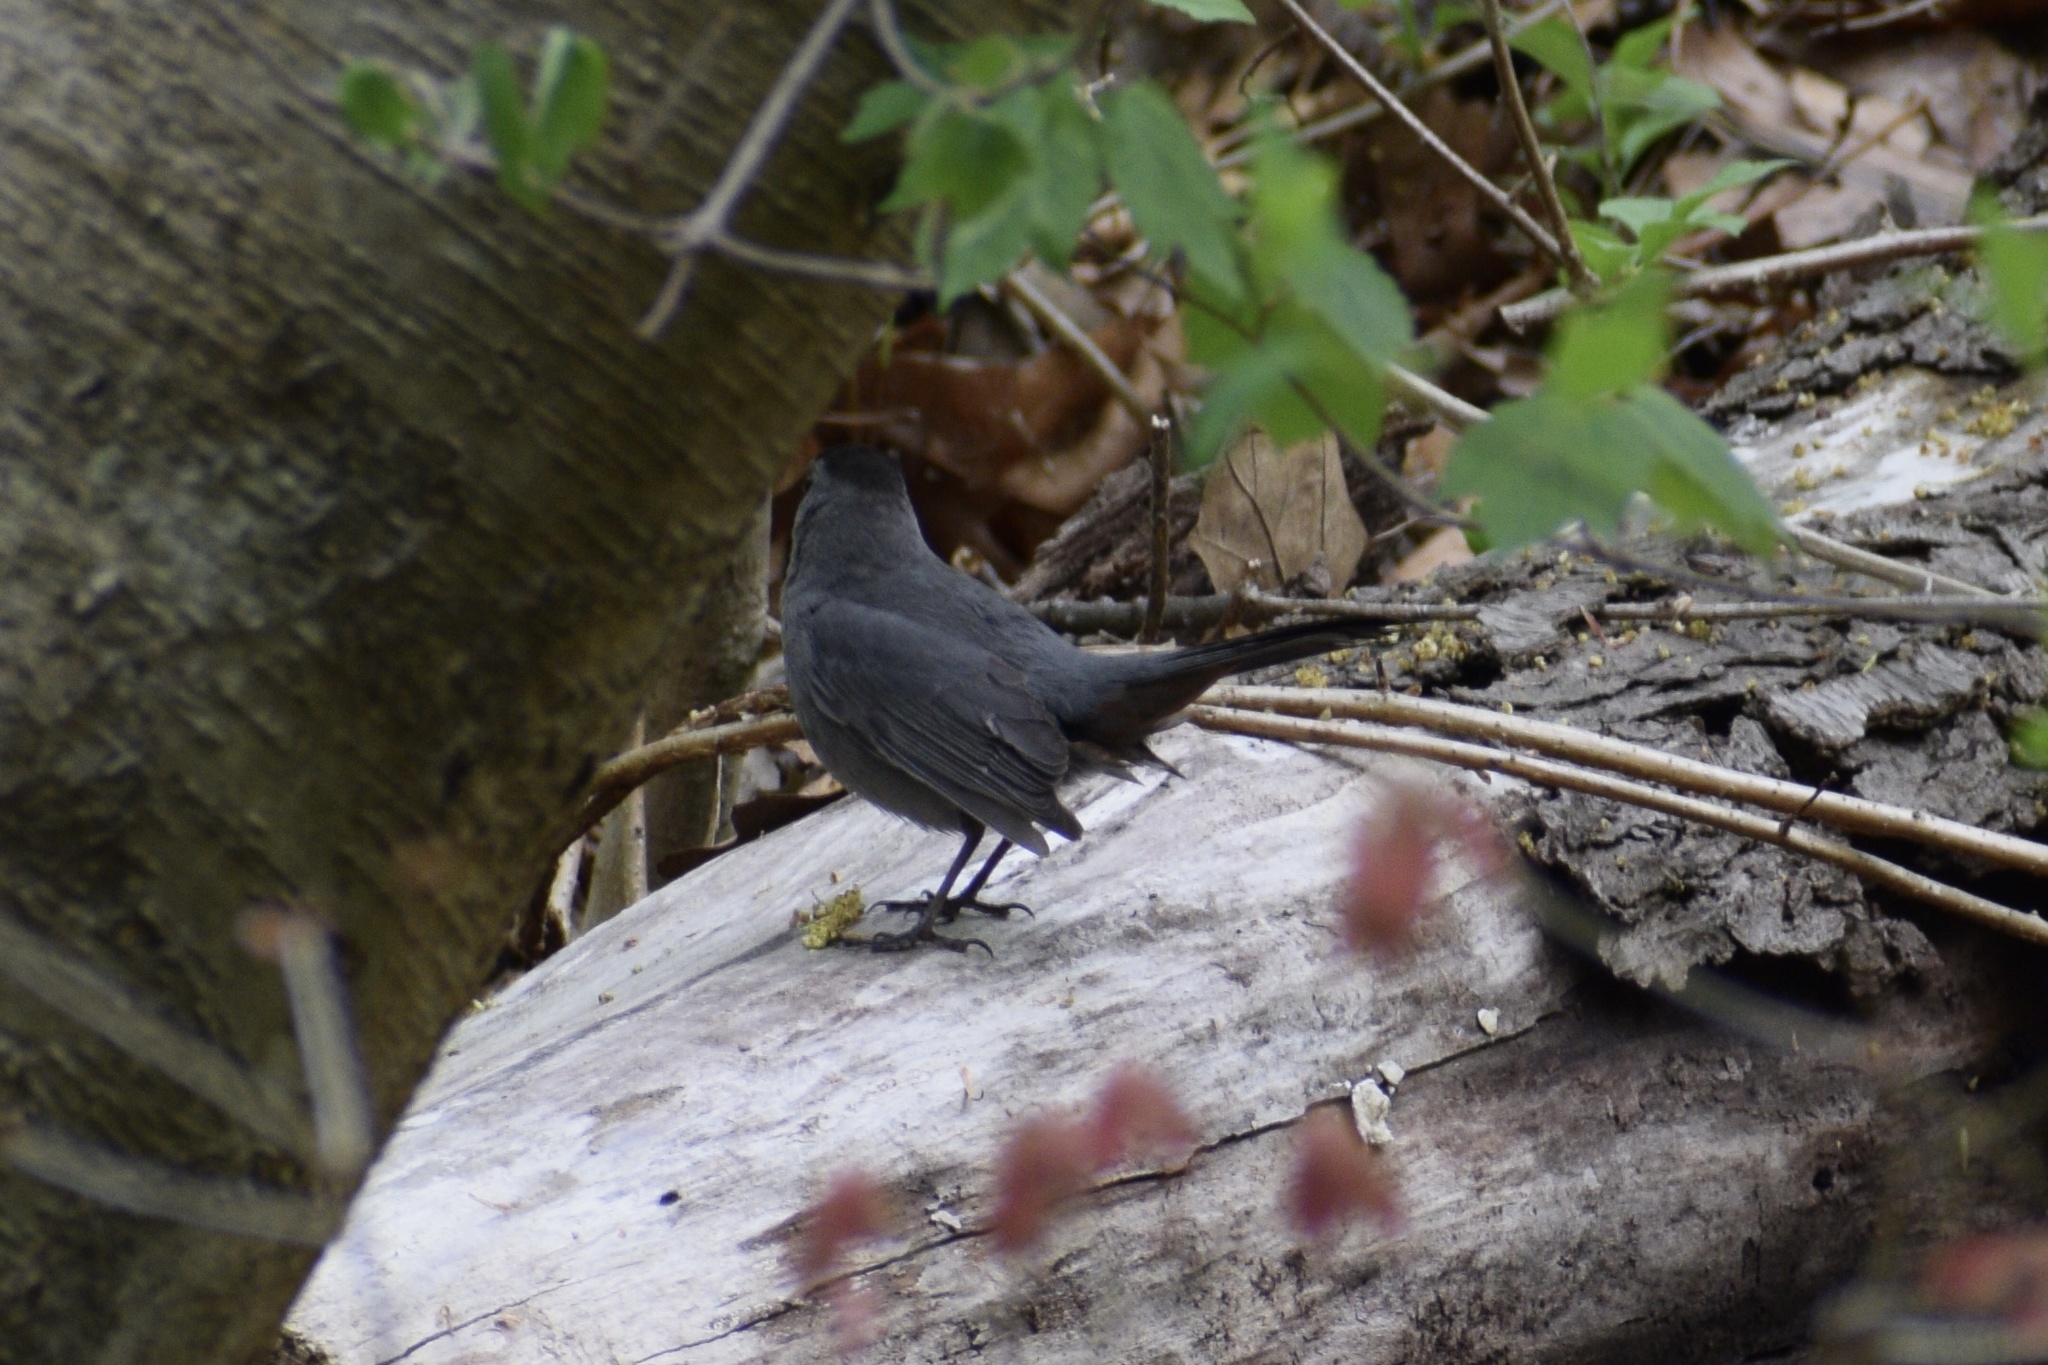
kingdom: Animalia
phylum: Chordata
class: Aves
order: Passeriformes
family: Mimidae
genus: Dumetella
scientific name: Dumetella carolinensis
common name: Gray catbird
